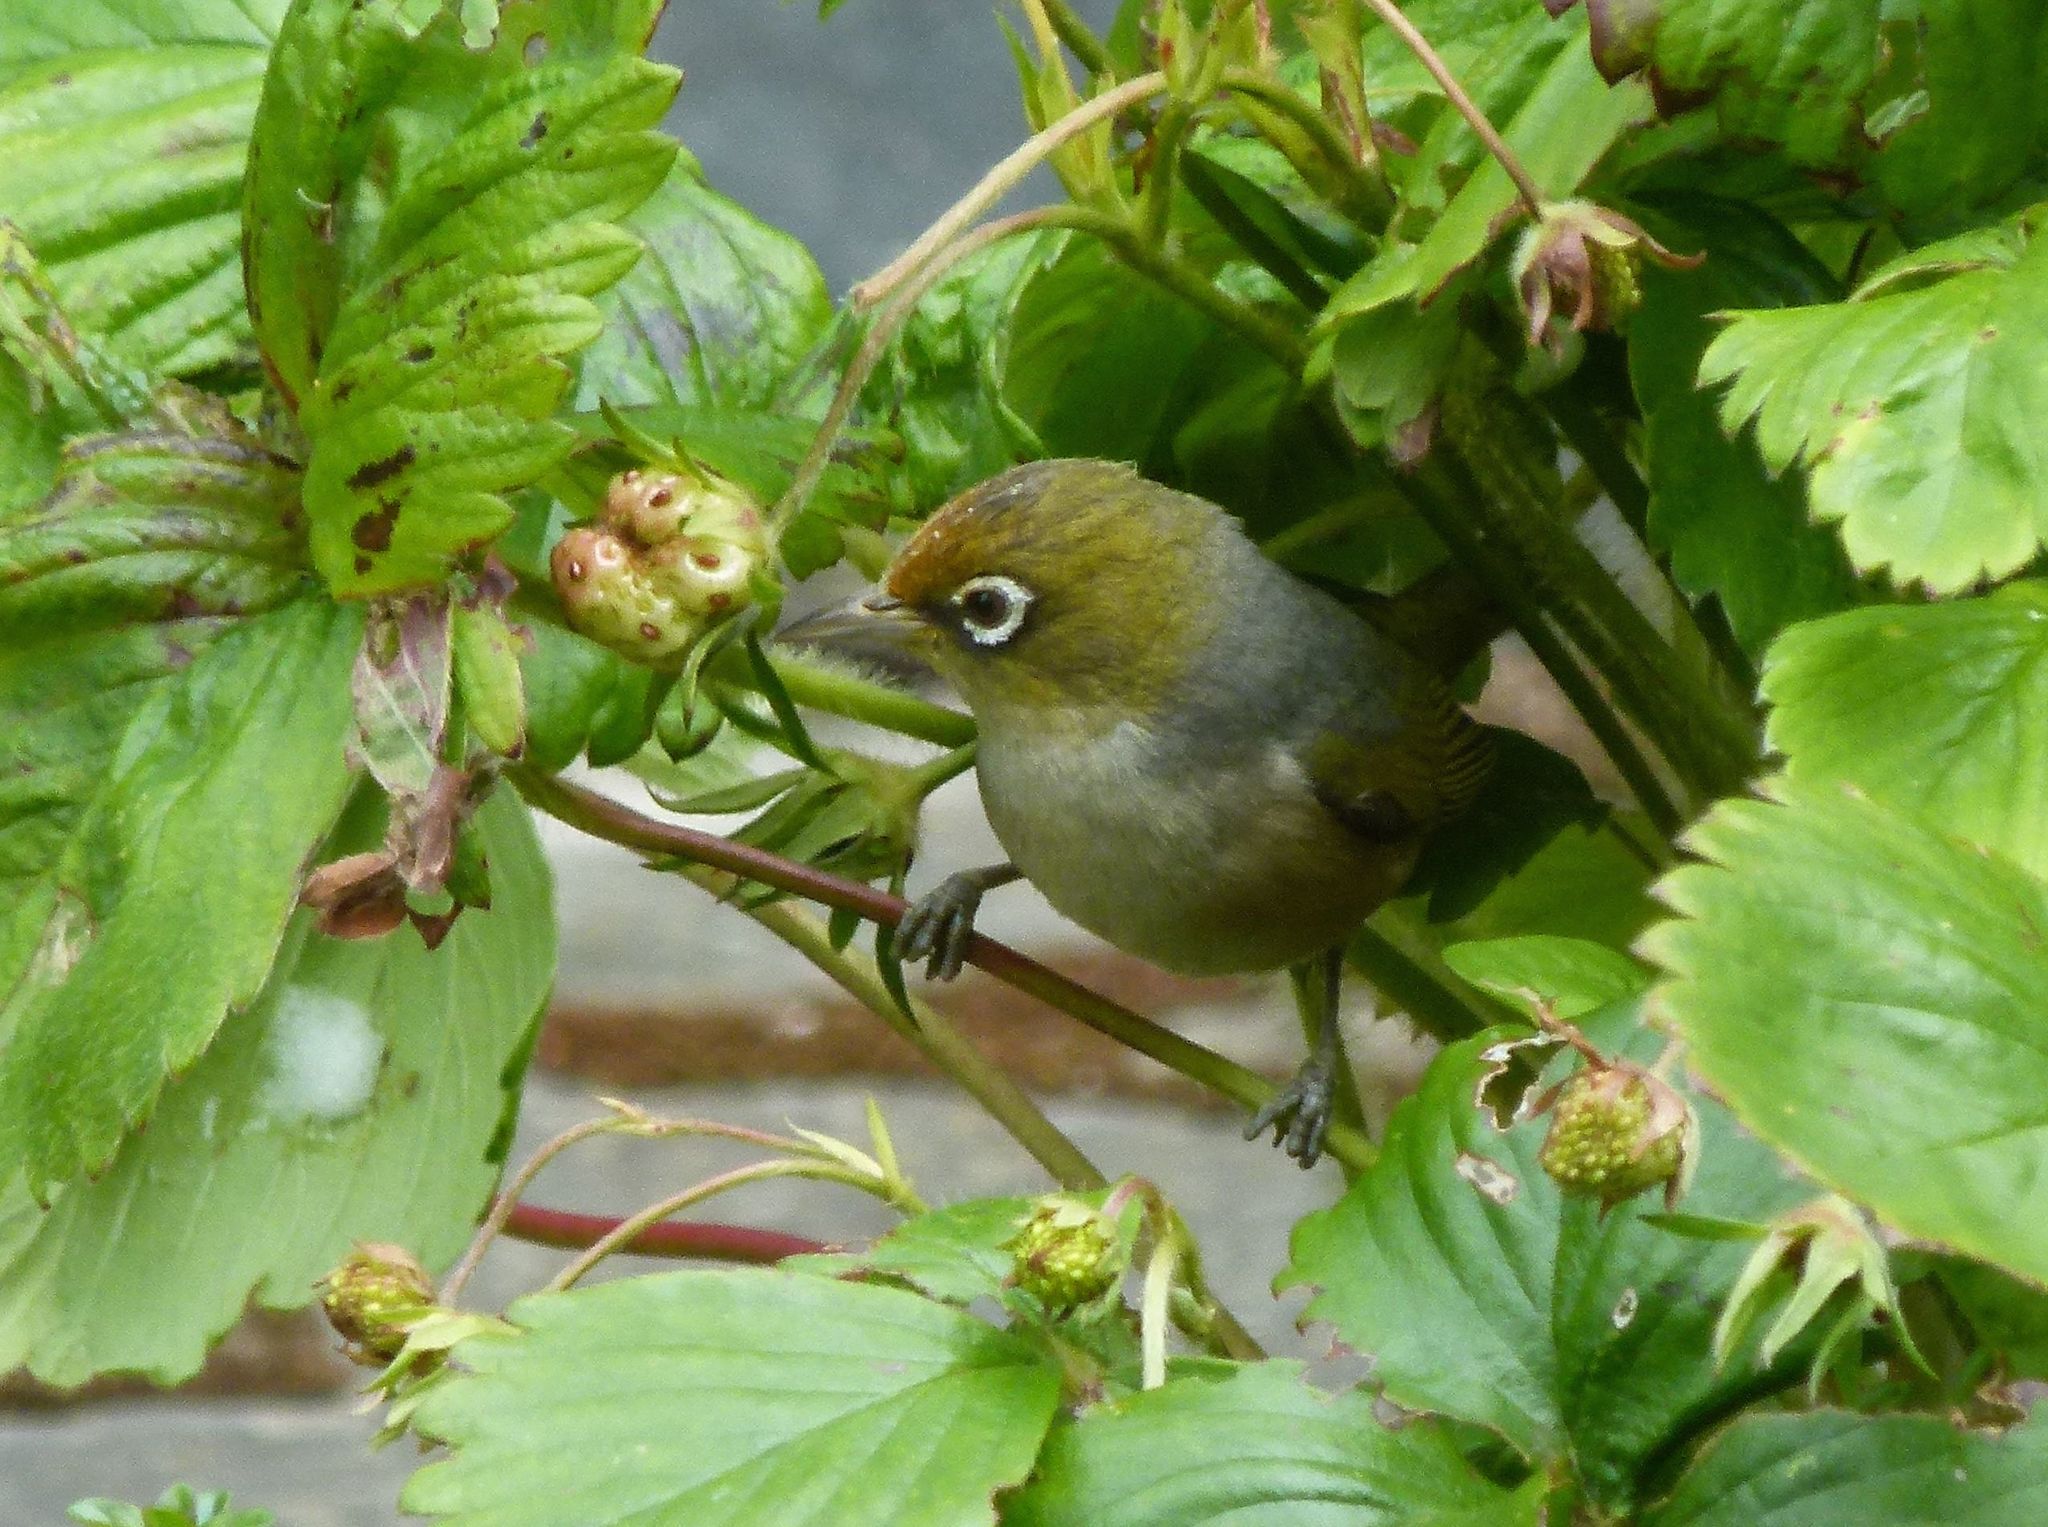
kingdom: Animalia
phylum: Chordata
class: Aves
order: Passeriformes
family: Zosteropidae
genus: Zosterops
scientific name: Zosterops lateralis
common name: Silvereye
